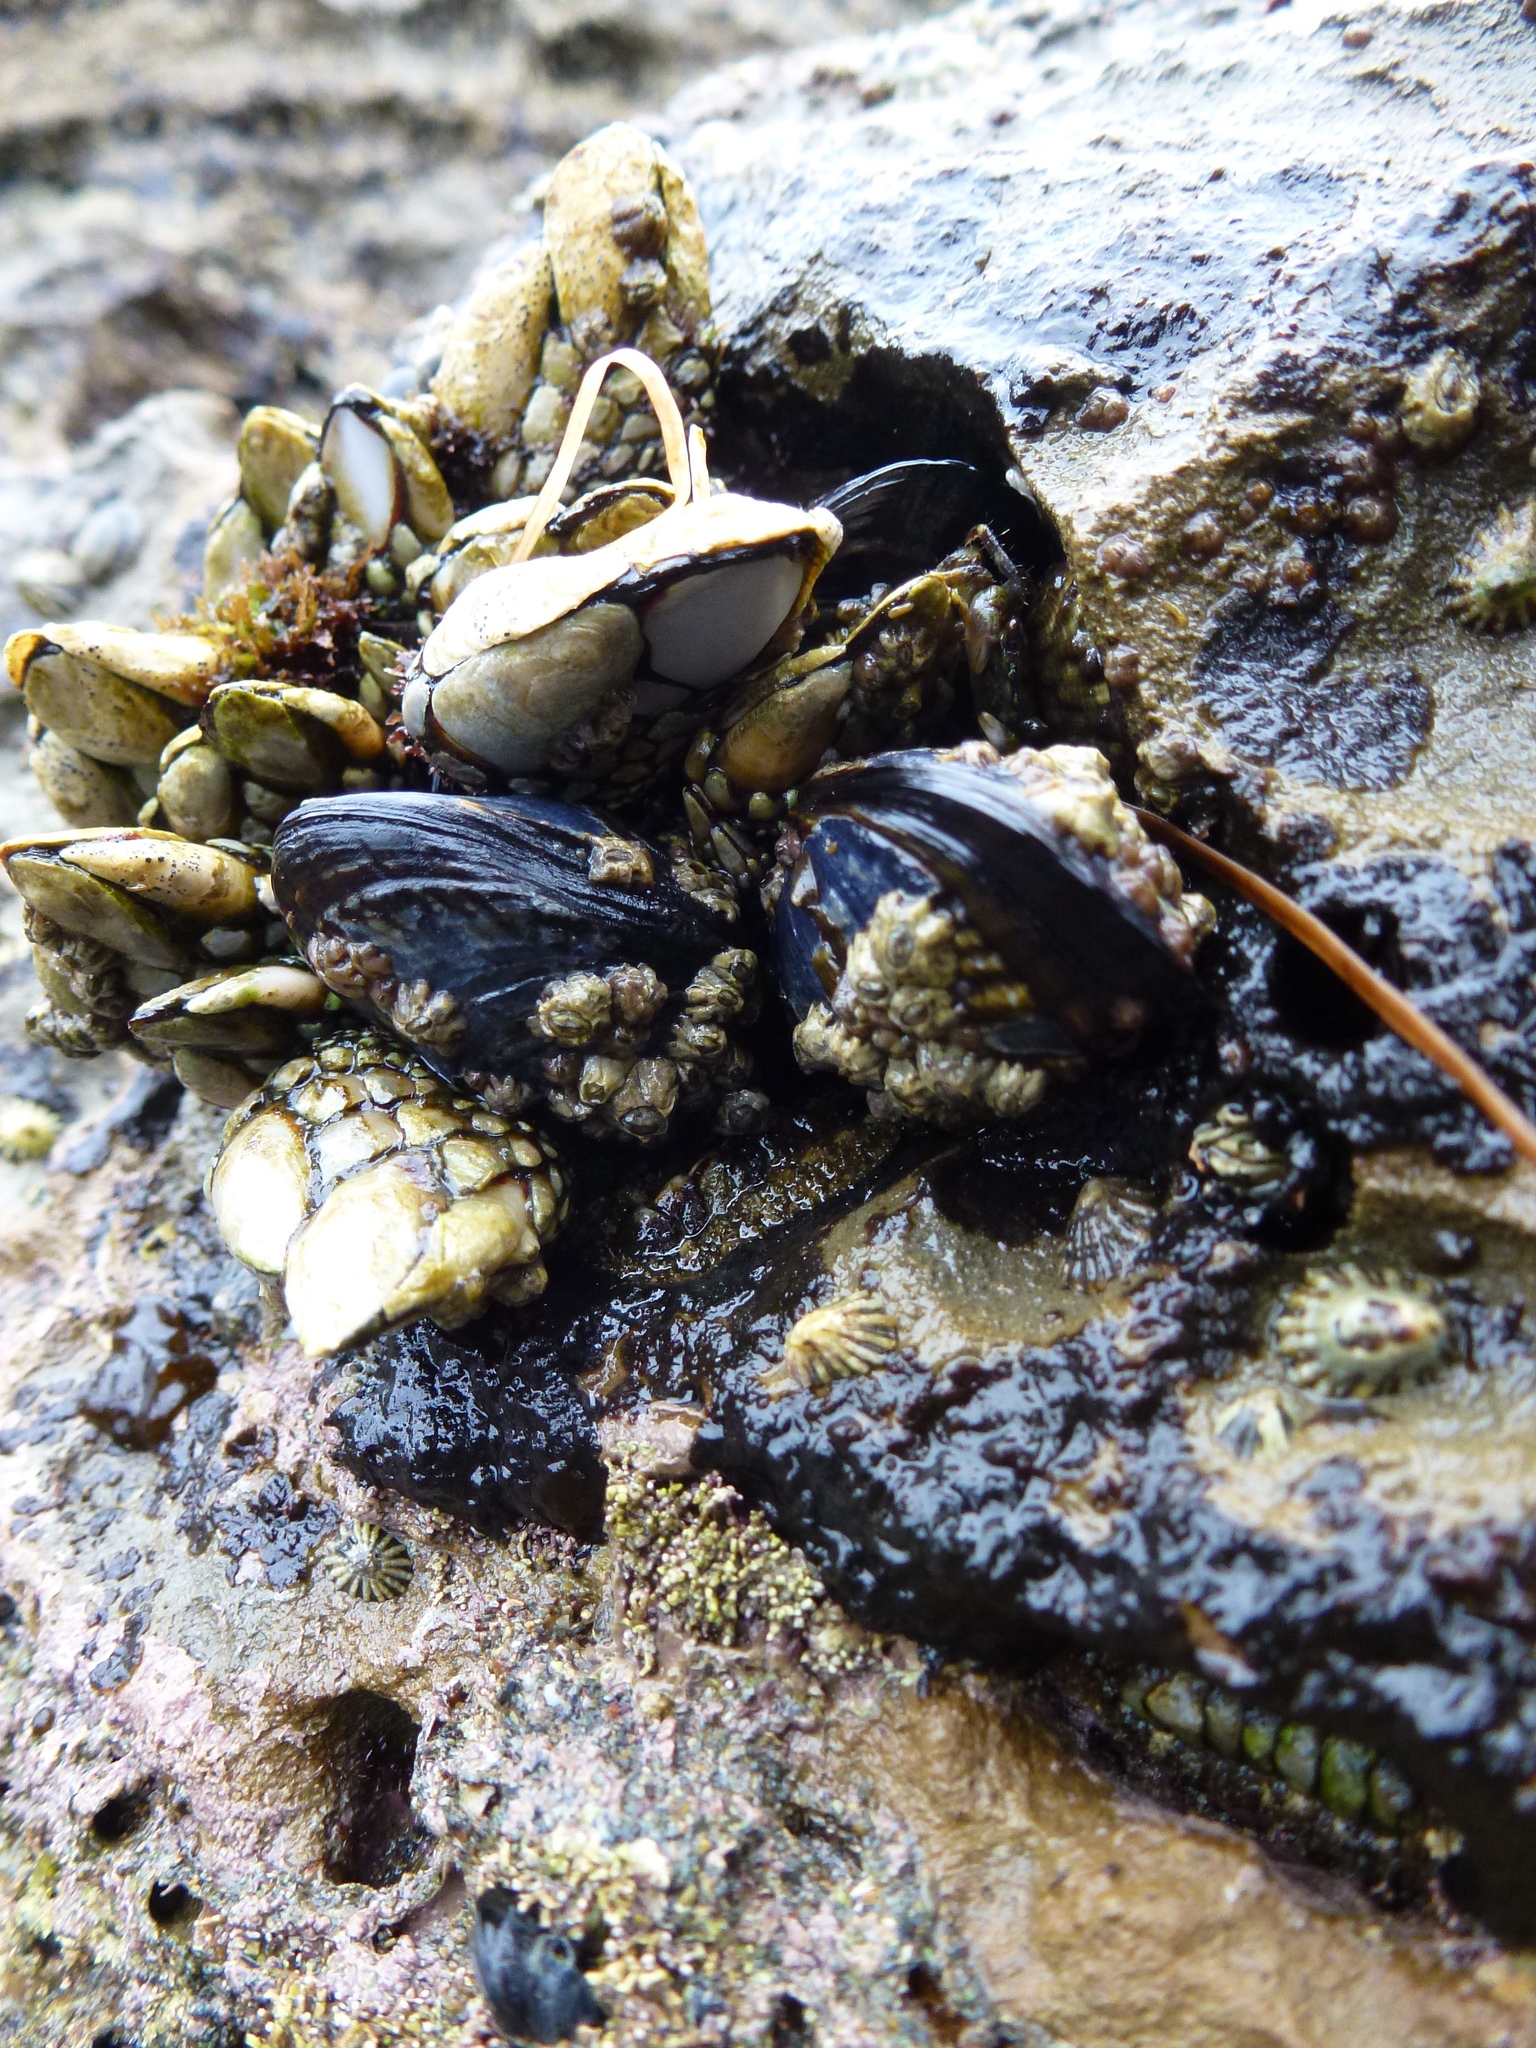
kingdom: Animalia
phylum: Mollusca
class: Bivalvia
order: Mytilida
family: Mytilidae
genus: Mytilus
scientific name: Mytilus californianus
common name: California mussel
